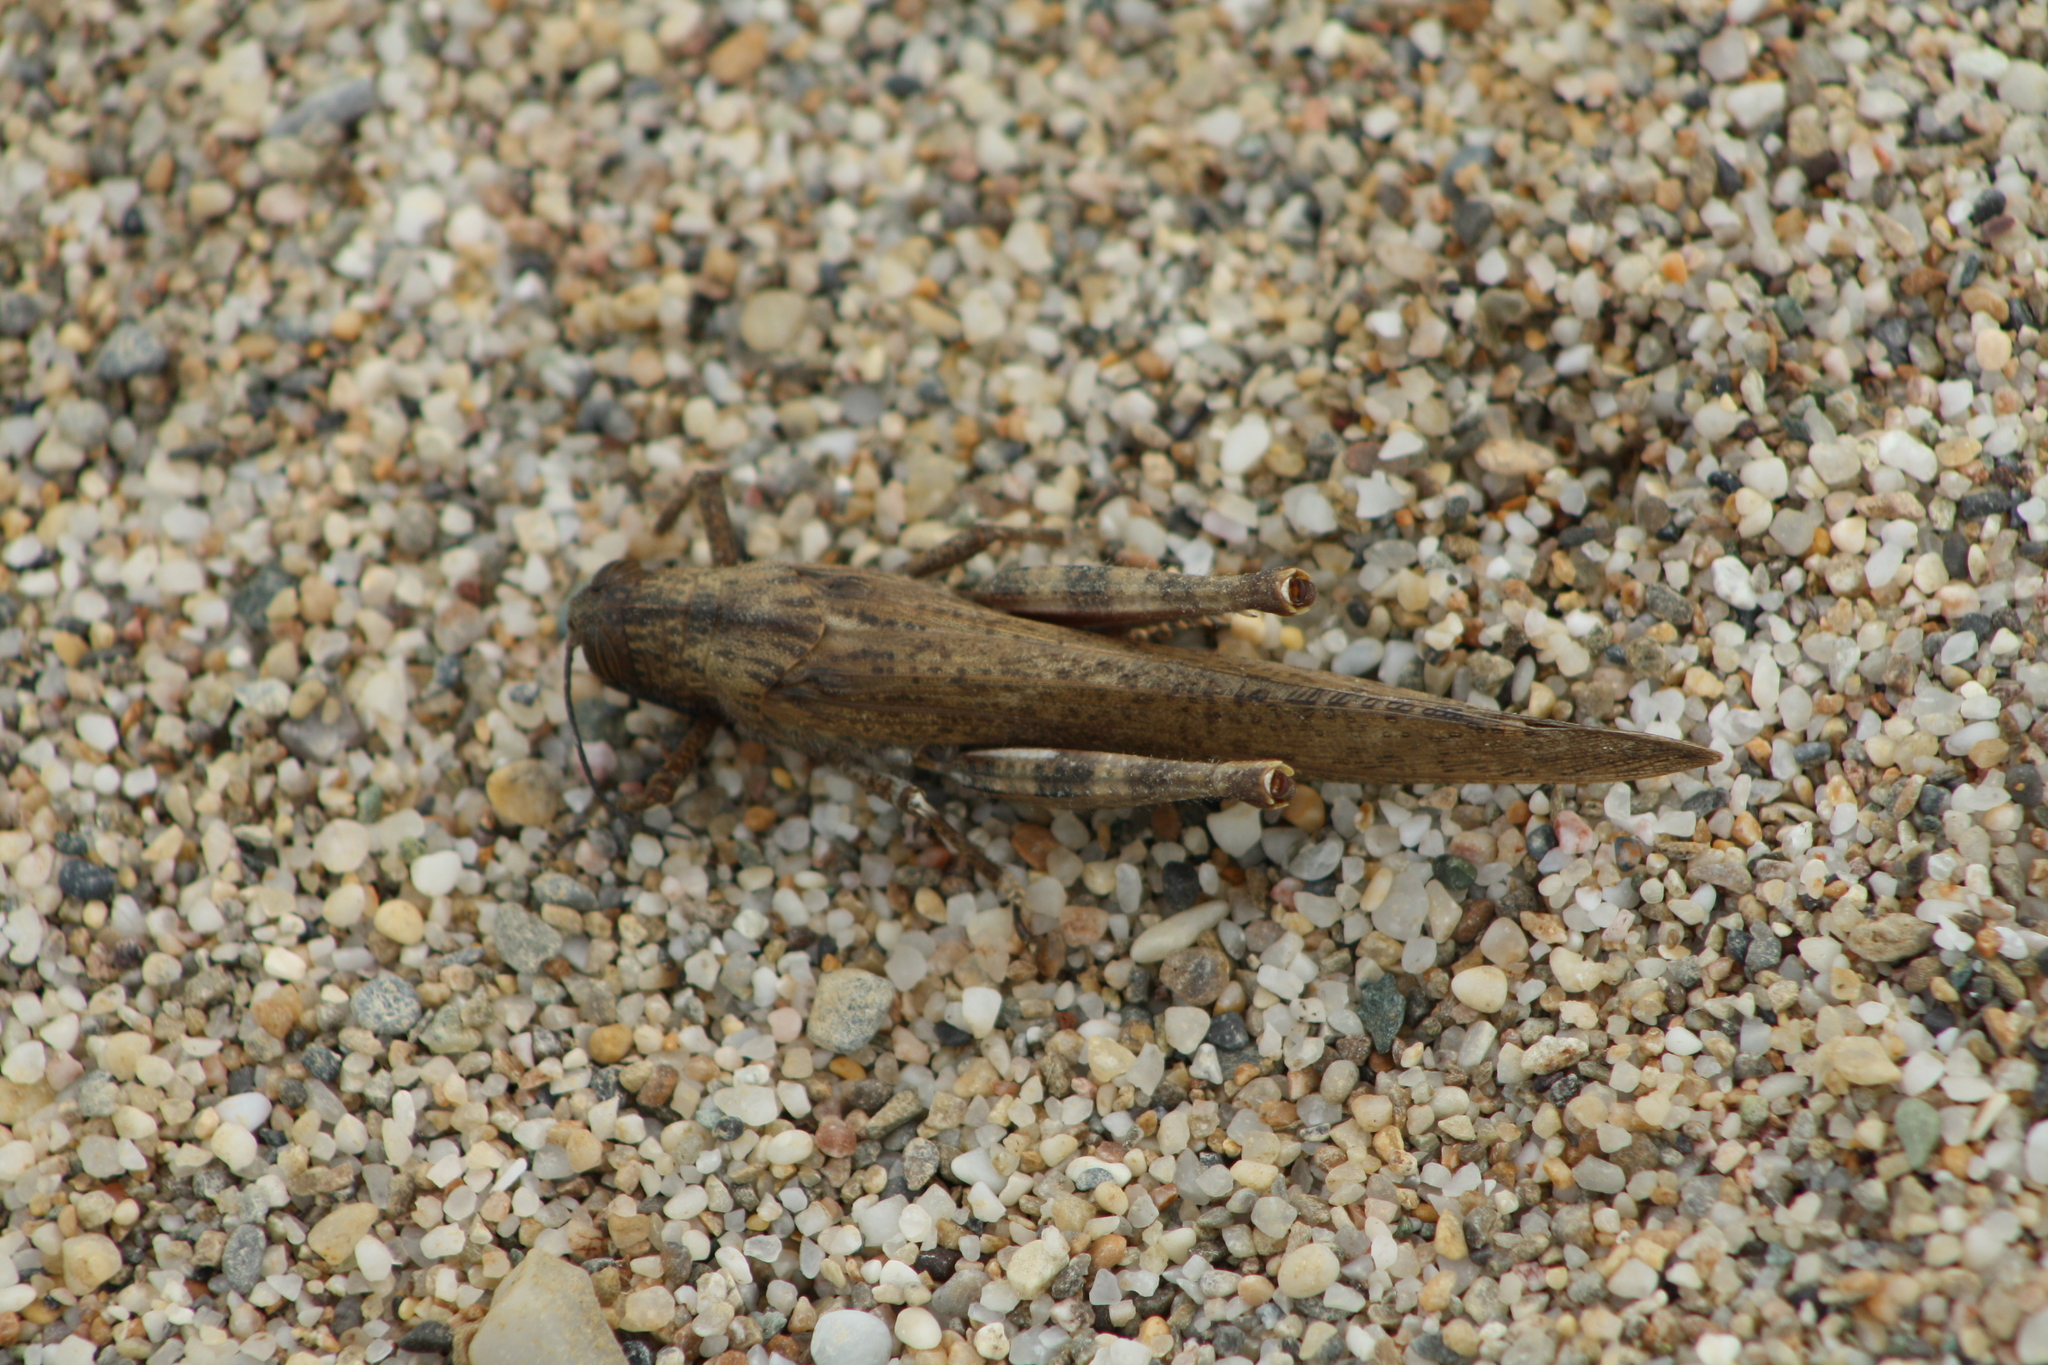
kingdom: Animalia
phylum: Arthropoda
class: Insecta
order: Orthoptera
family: Acrididae
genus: Anacridium
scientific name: Anacridium aegyptium
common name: Egyptian grasshopper
